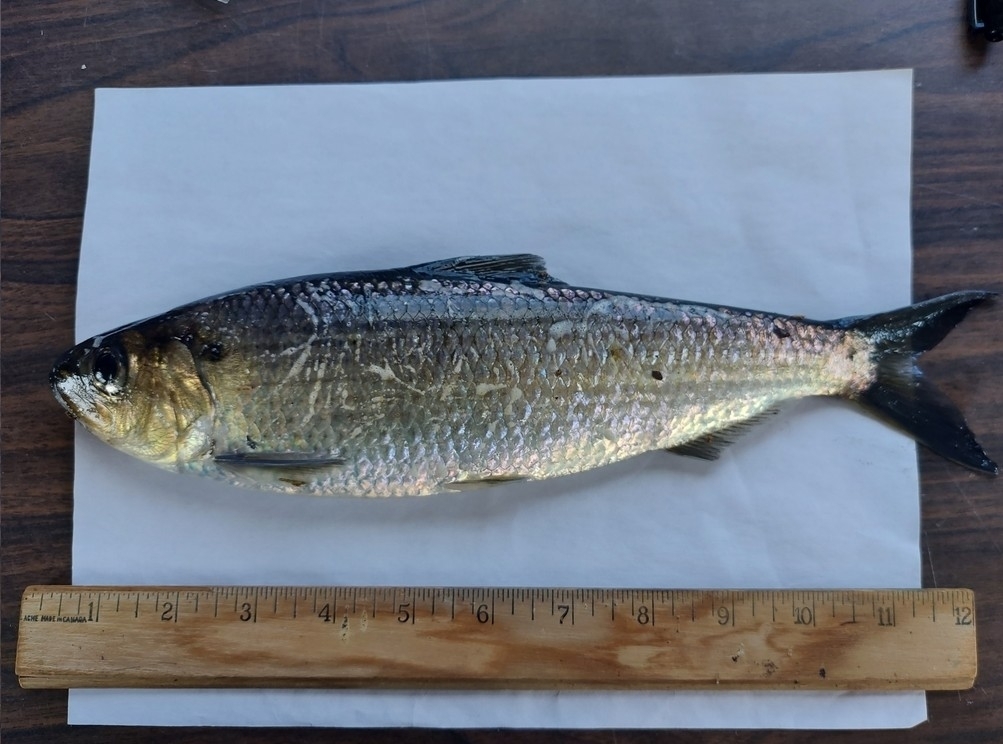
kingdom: Animalia
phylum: Chordata
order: Clupeiformes
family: Clupeidae
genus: Alosa
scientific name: Alosa pseudoharengus
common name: Alewife
